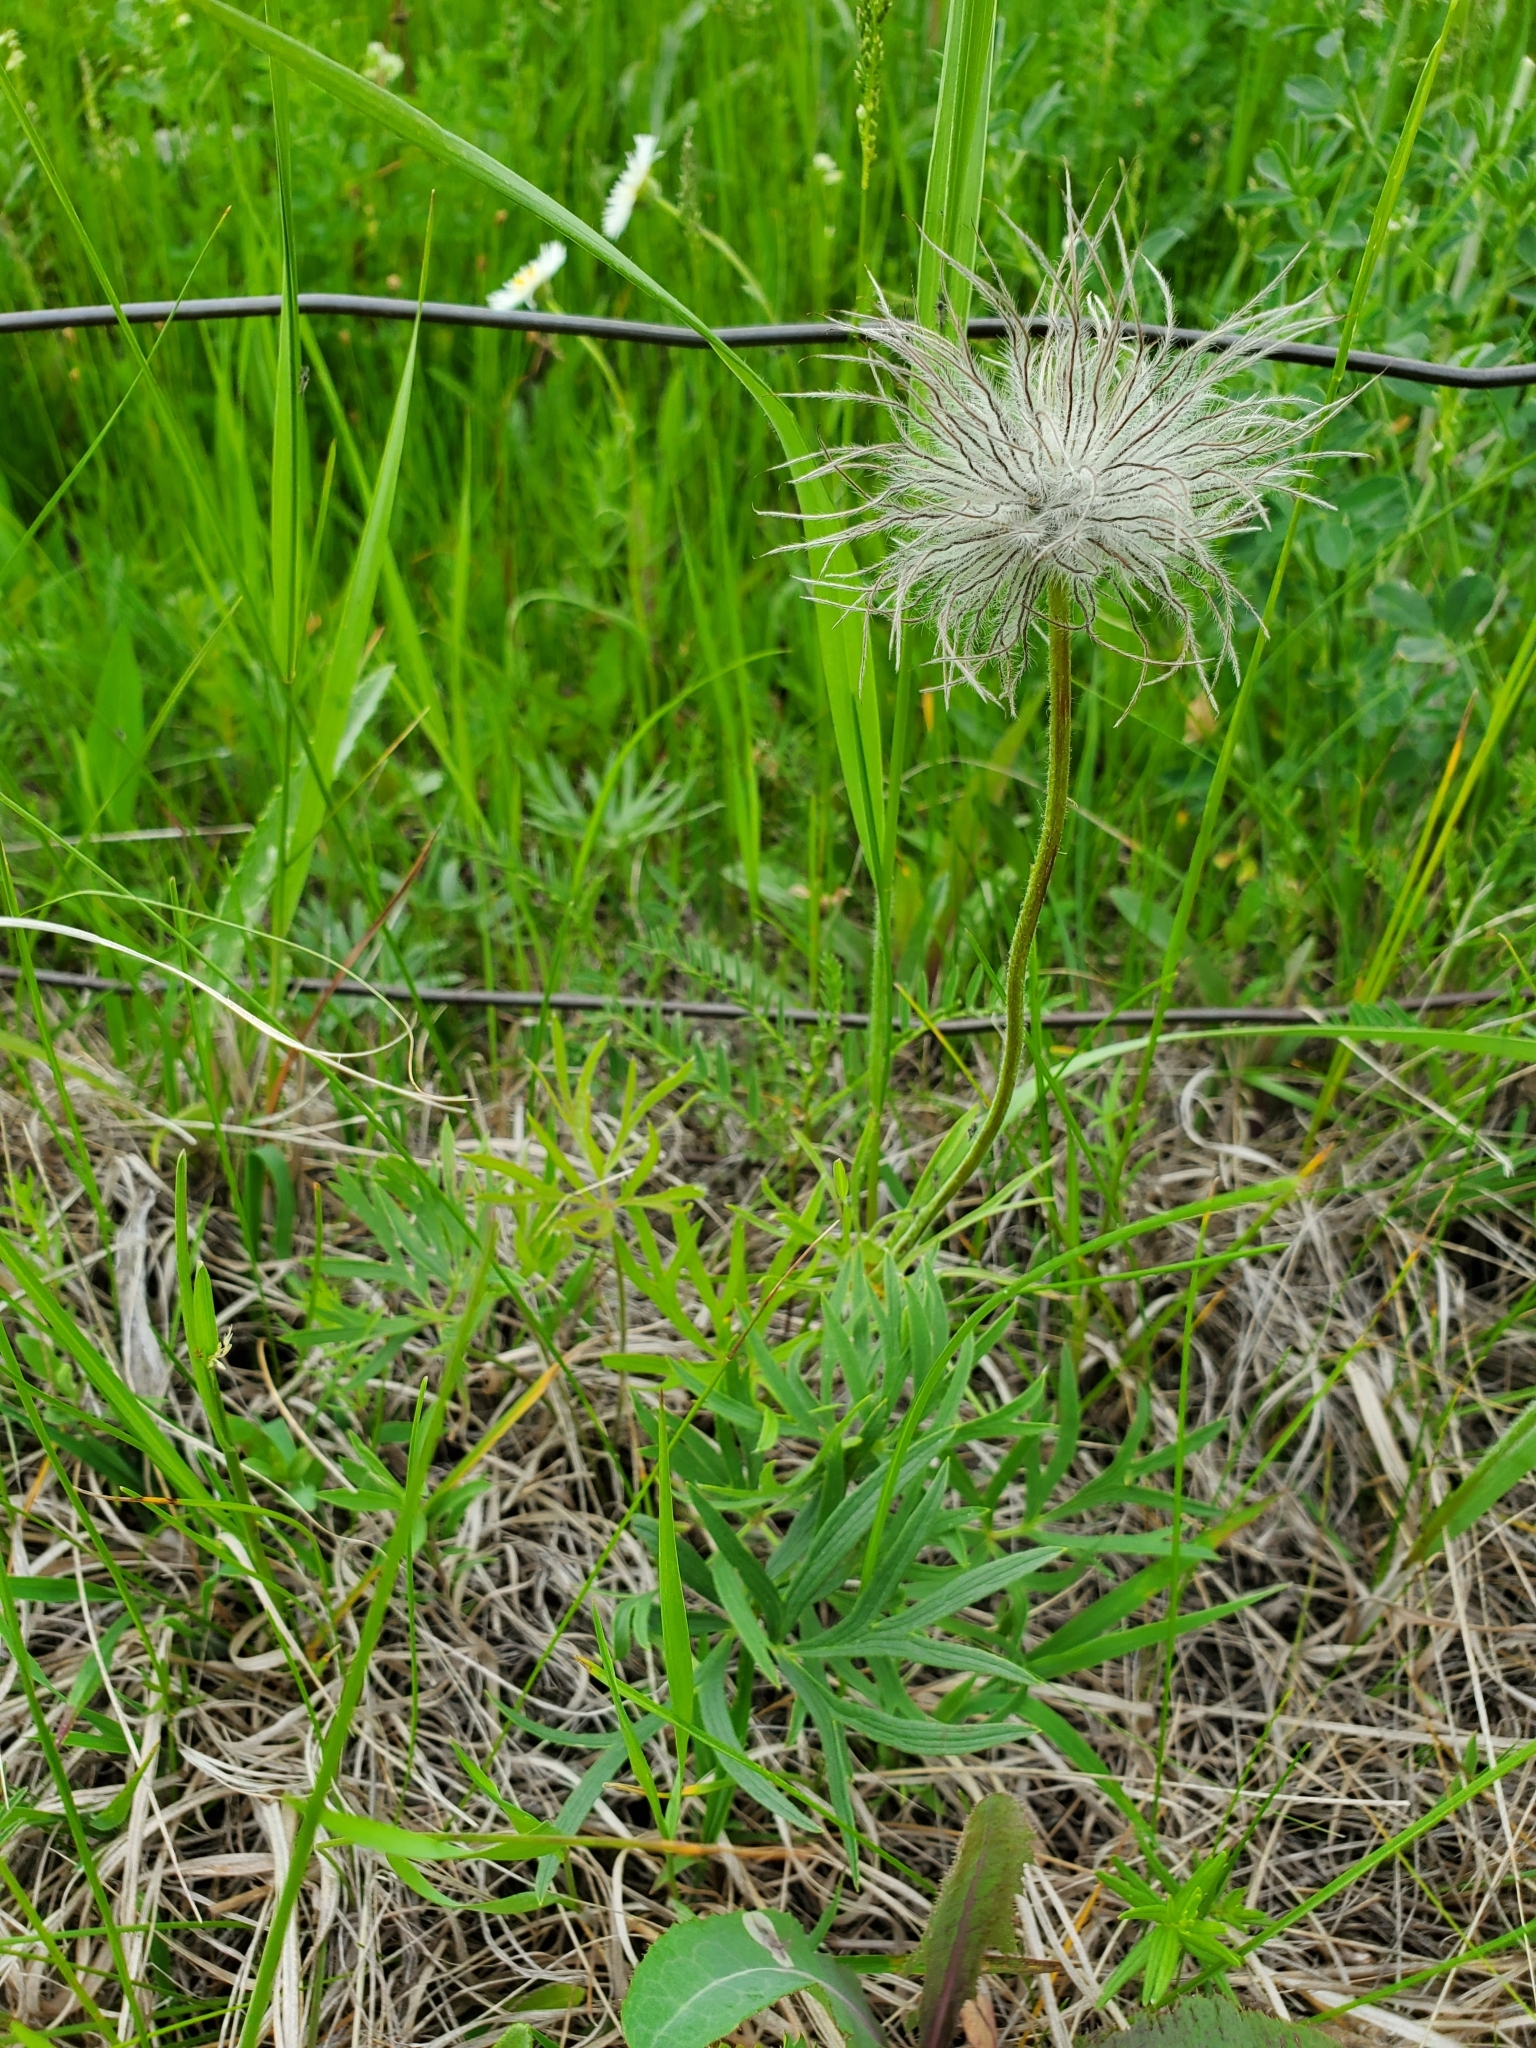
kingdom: Plantae
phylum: Tracheophyta
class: Magnoliopsida
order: Ranunculales
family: Ranunculaceae
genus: Pulsatilla
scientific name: Pulsatilla nuttalliana
